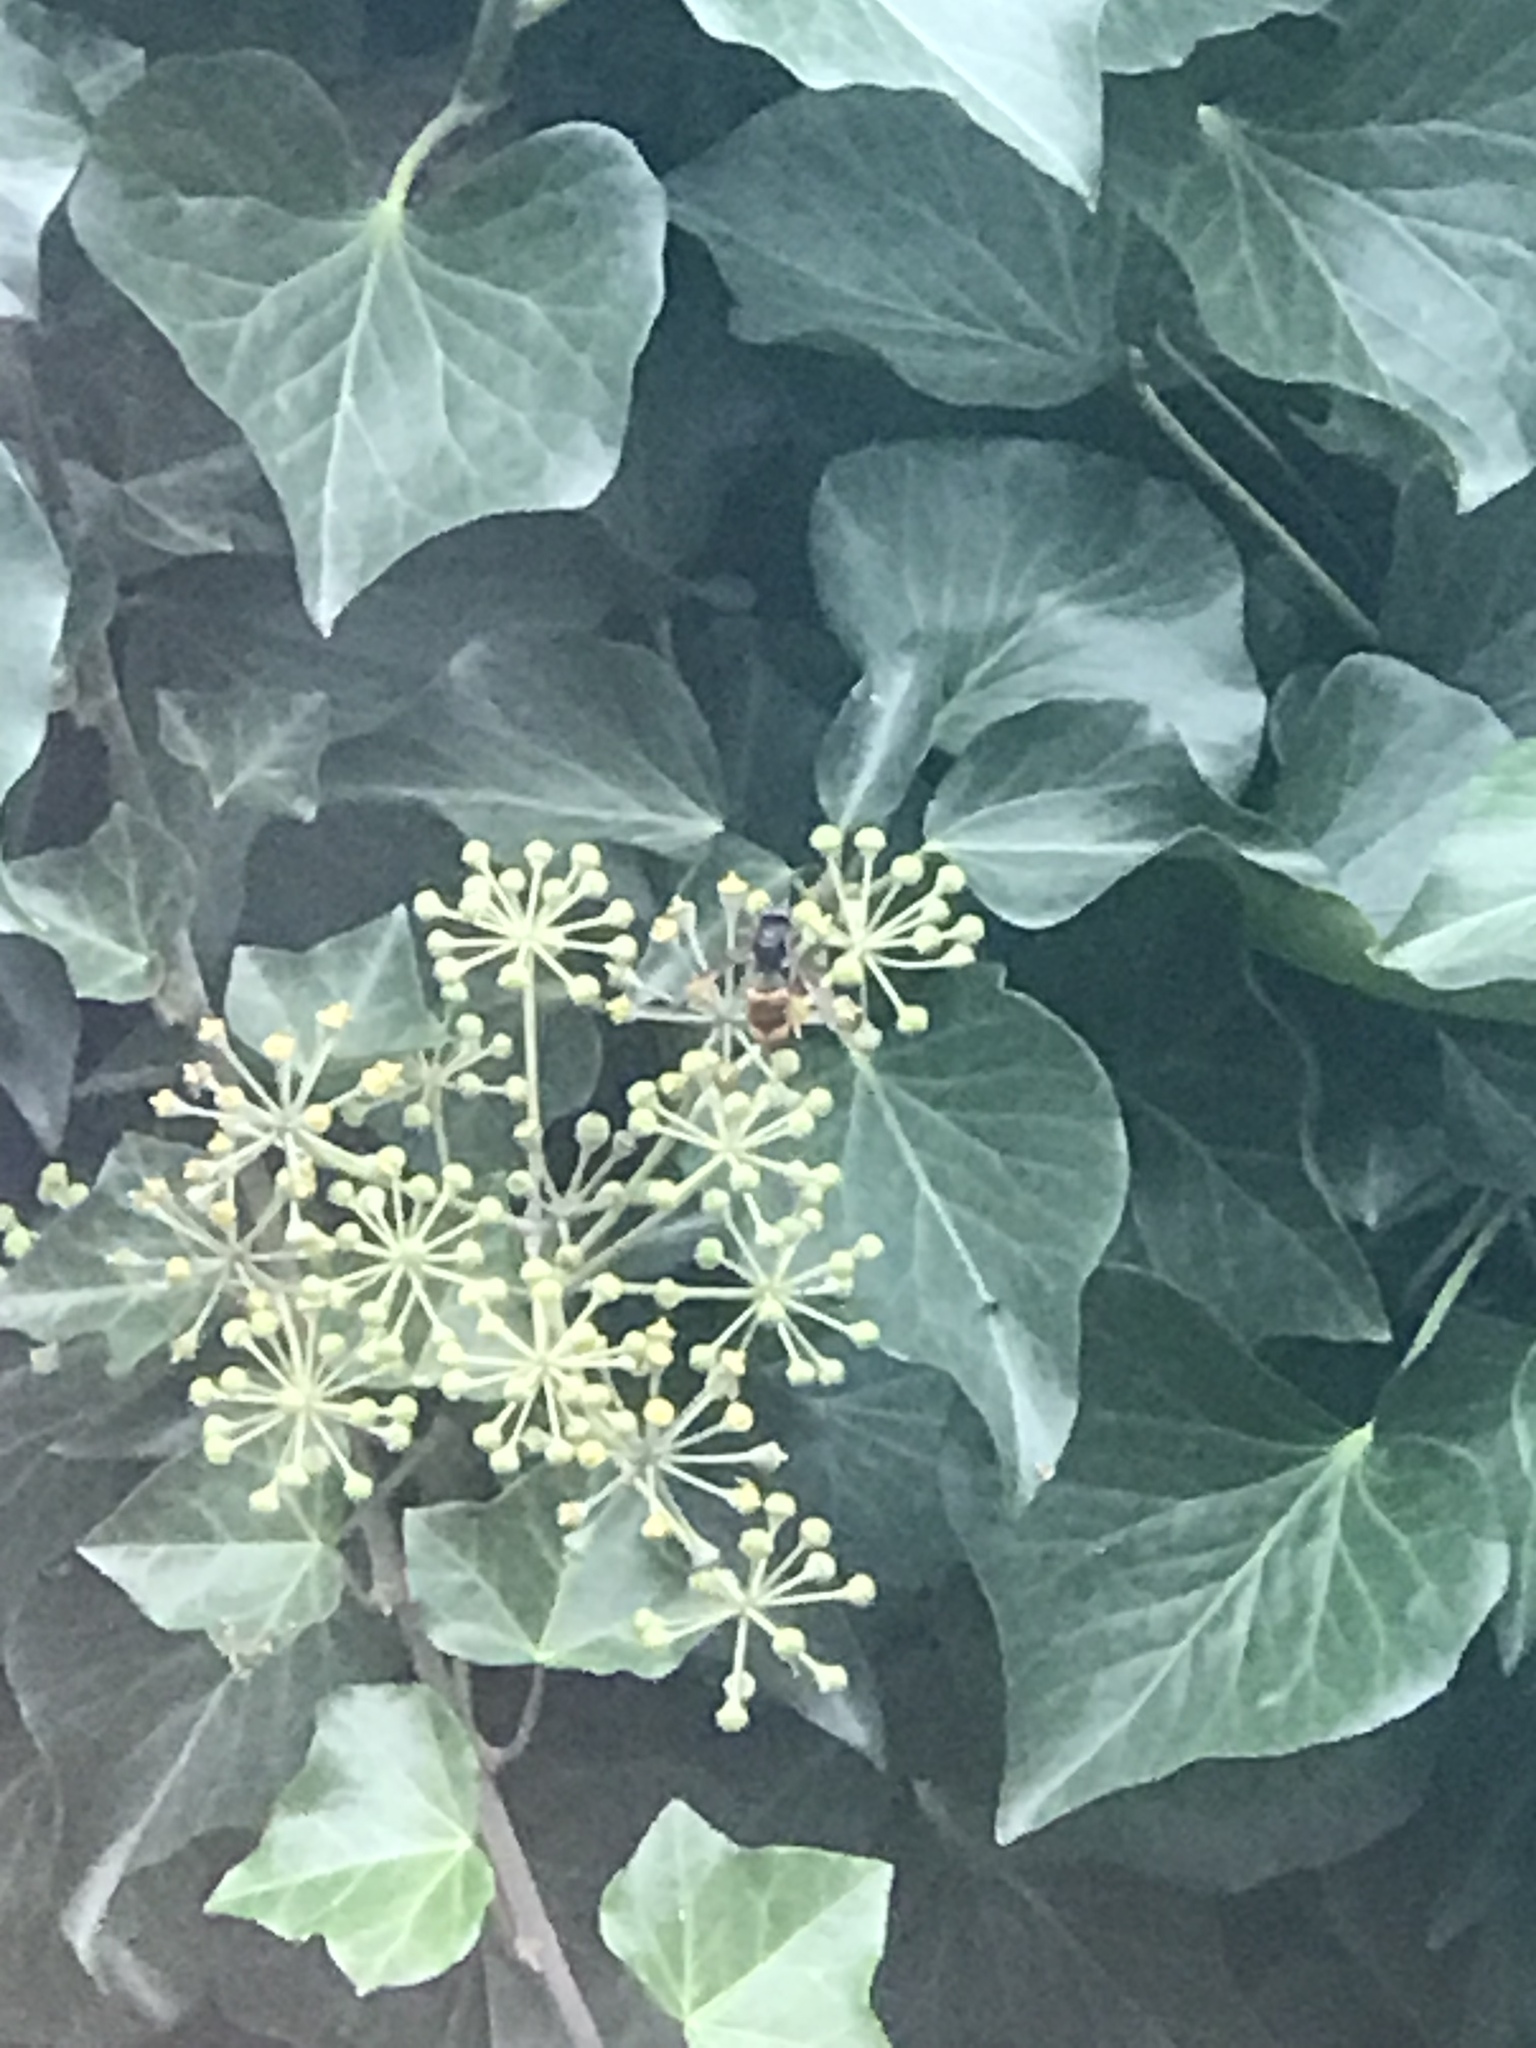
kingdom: Animalia
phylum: Arthropoda
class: Insecta
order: Hymenoptera
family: Vespidae
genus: Vespa
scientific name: Vespa velutina
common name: Asian hornet
